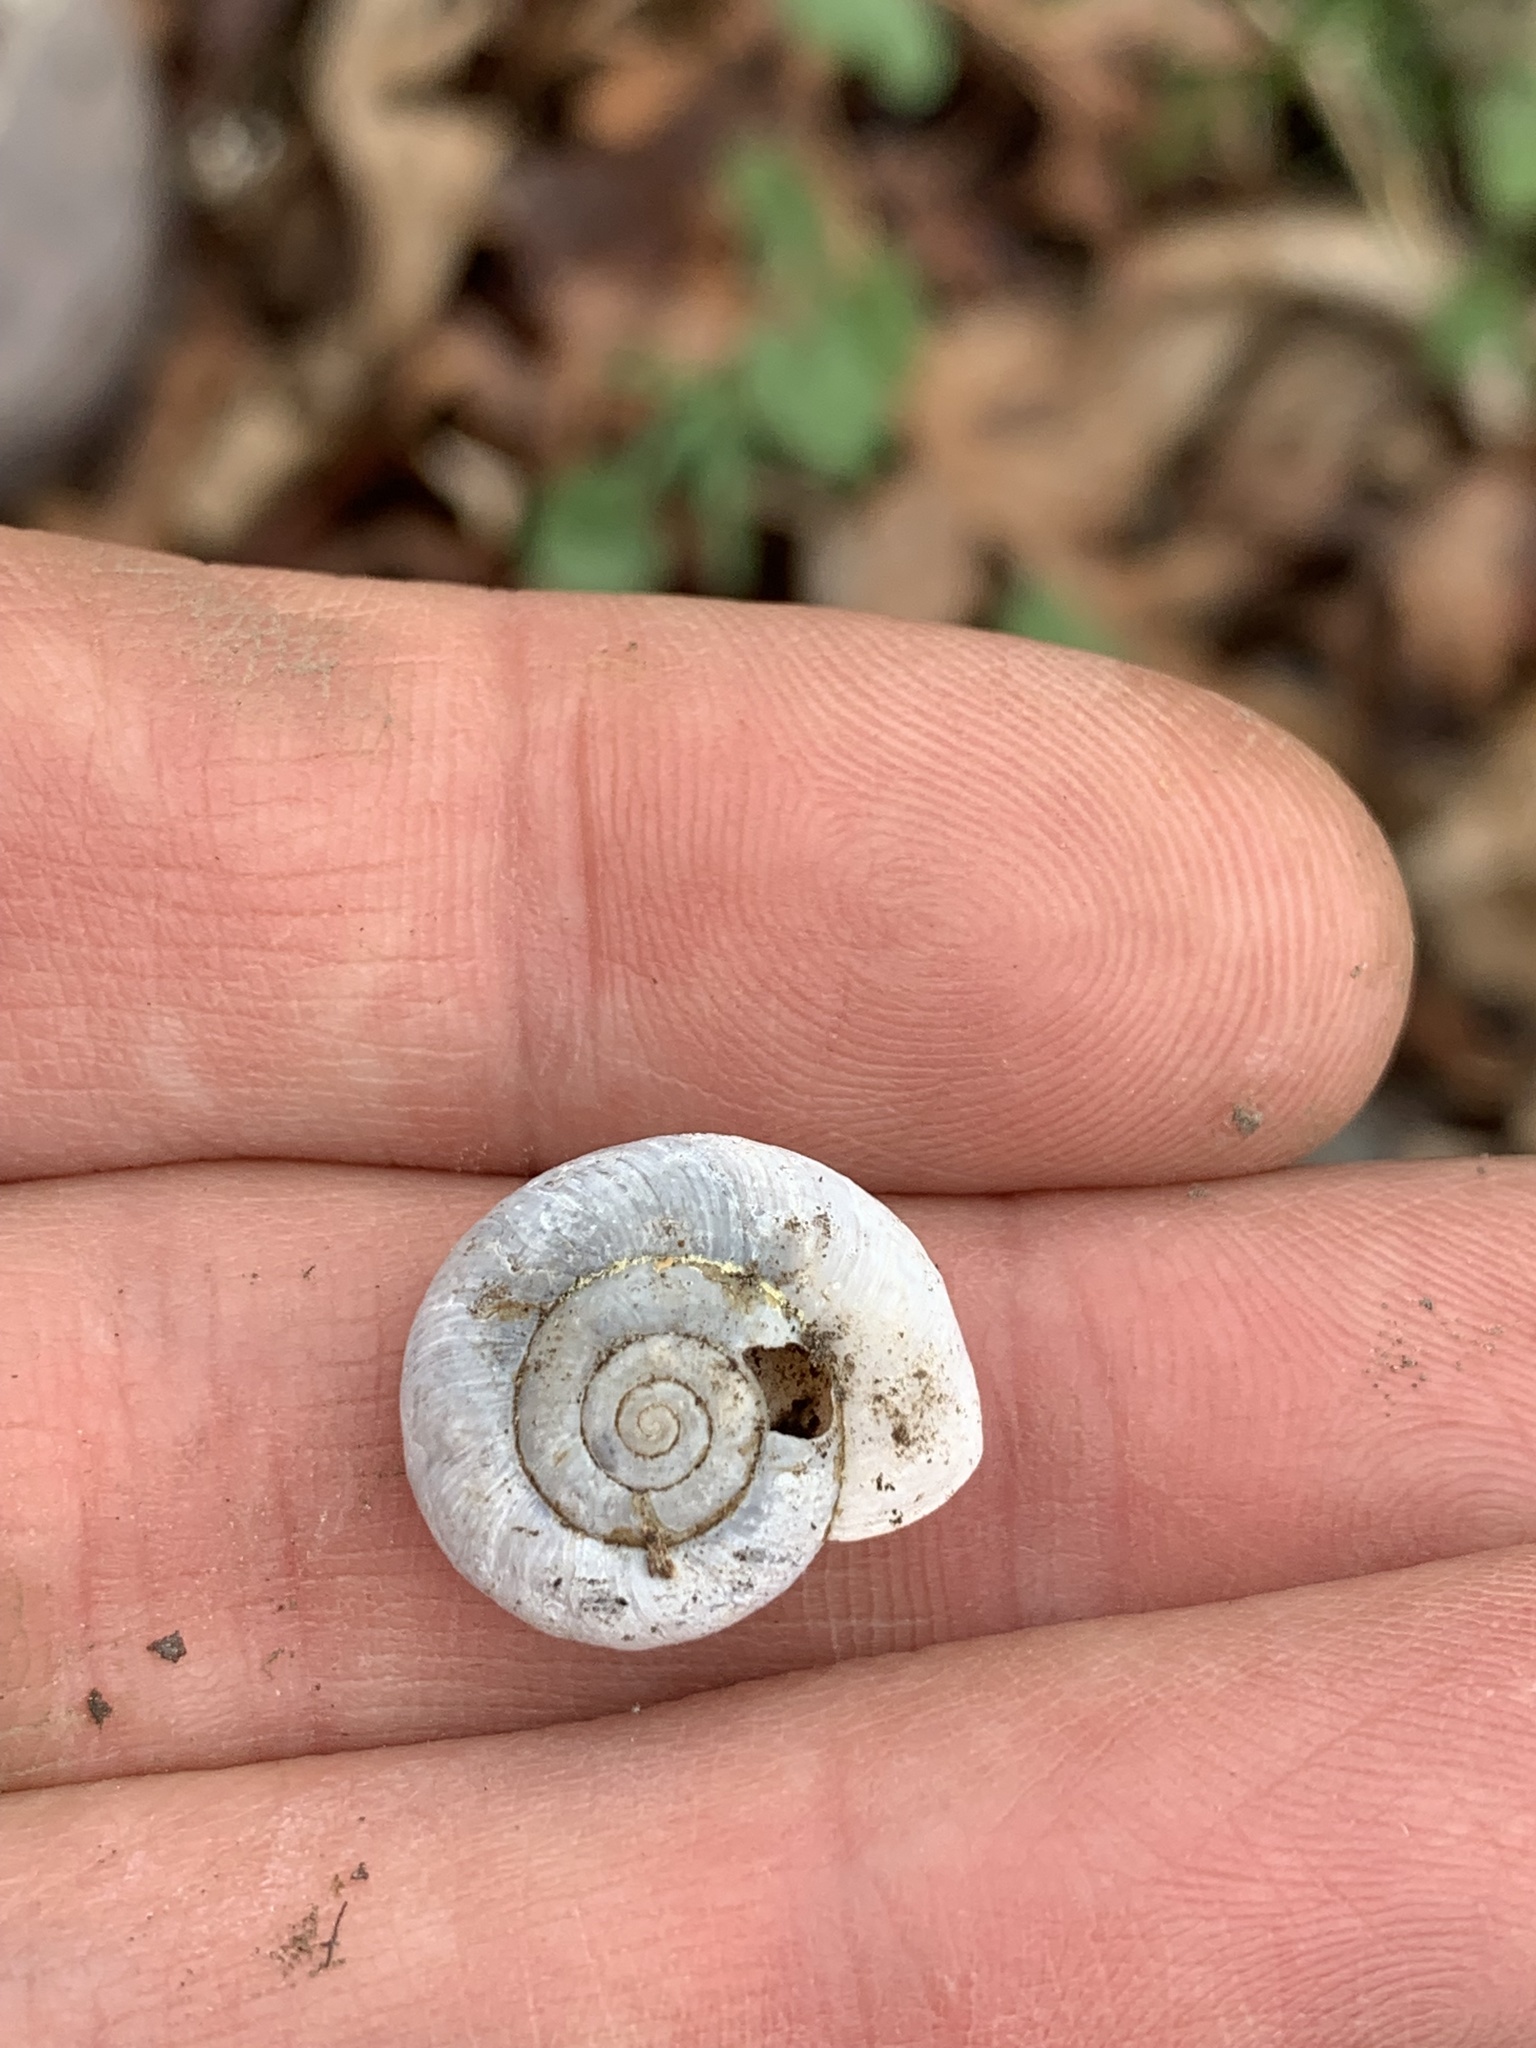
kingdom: Animalia
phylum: Mollusca
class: Gastropoda
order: Stylommatophora
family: Haplotrematidae
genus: Haplotrema
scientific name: Haplotrema concavum
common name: Gray-foot lancetooth
